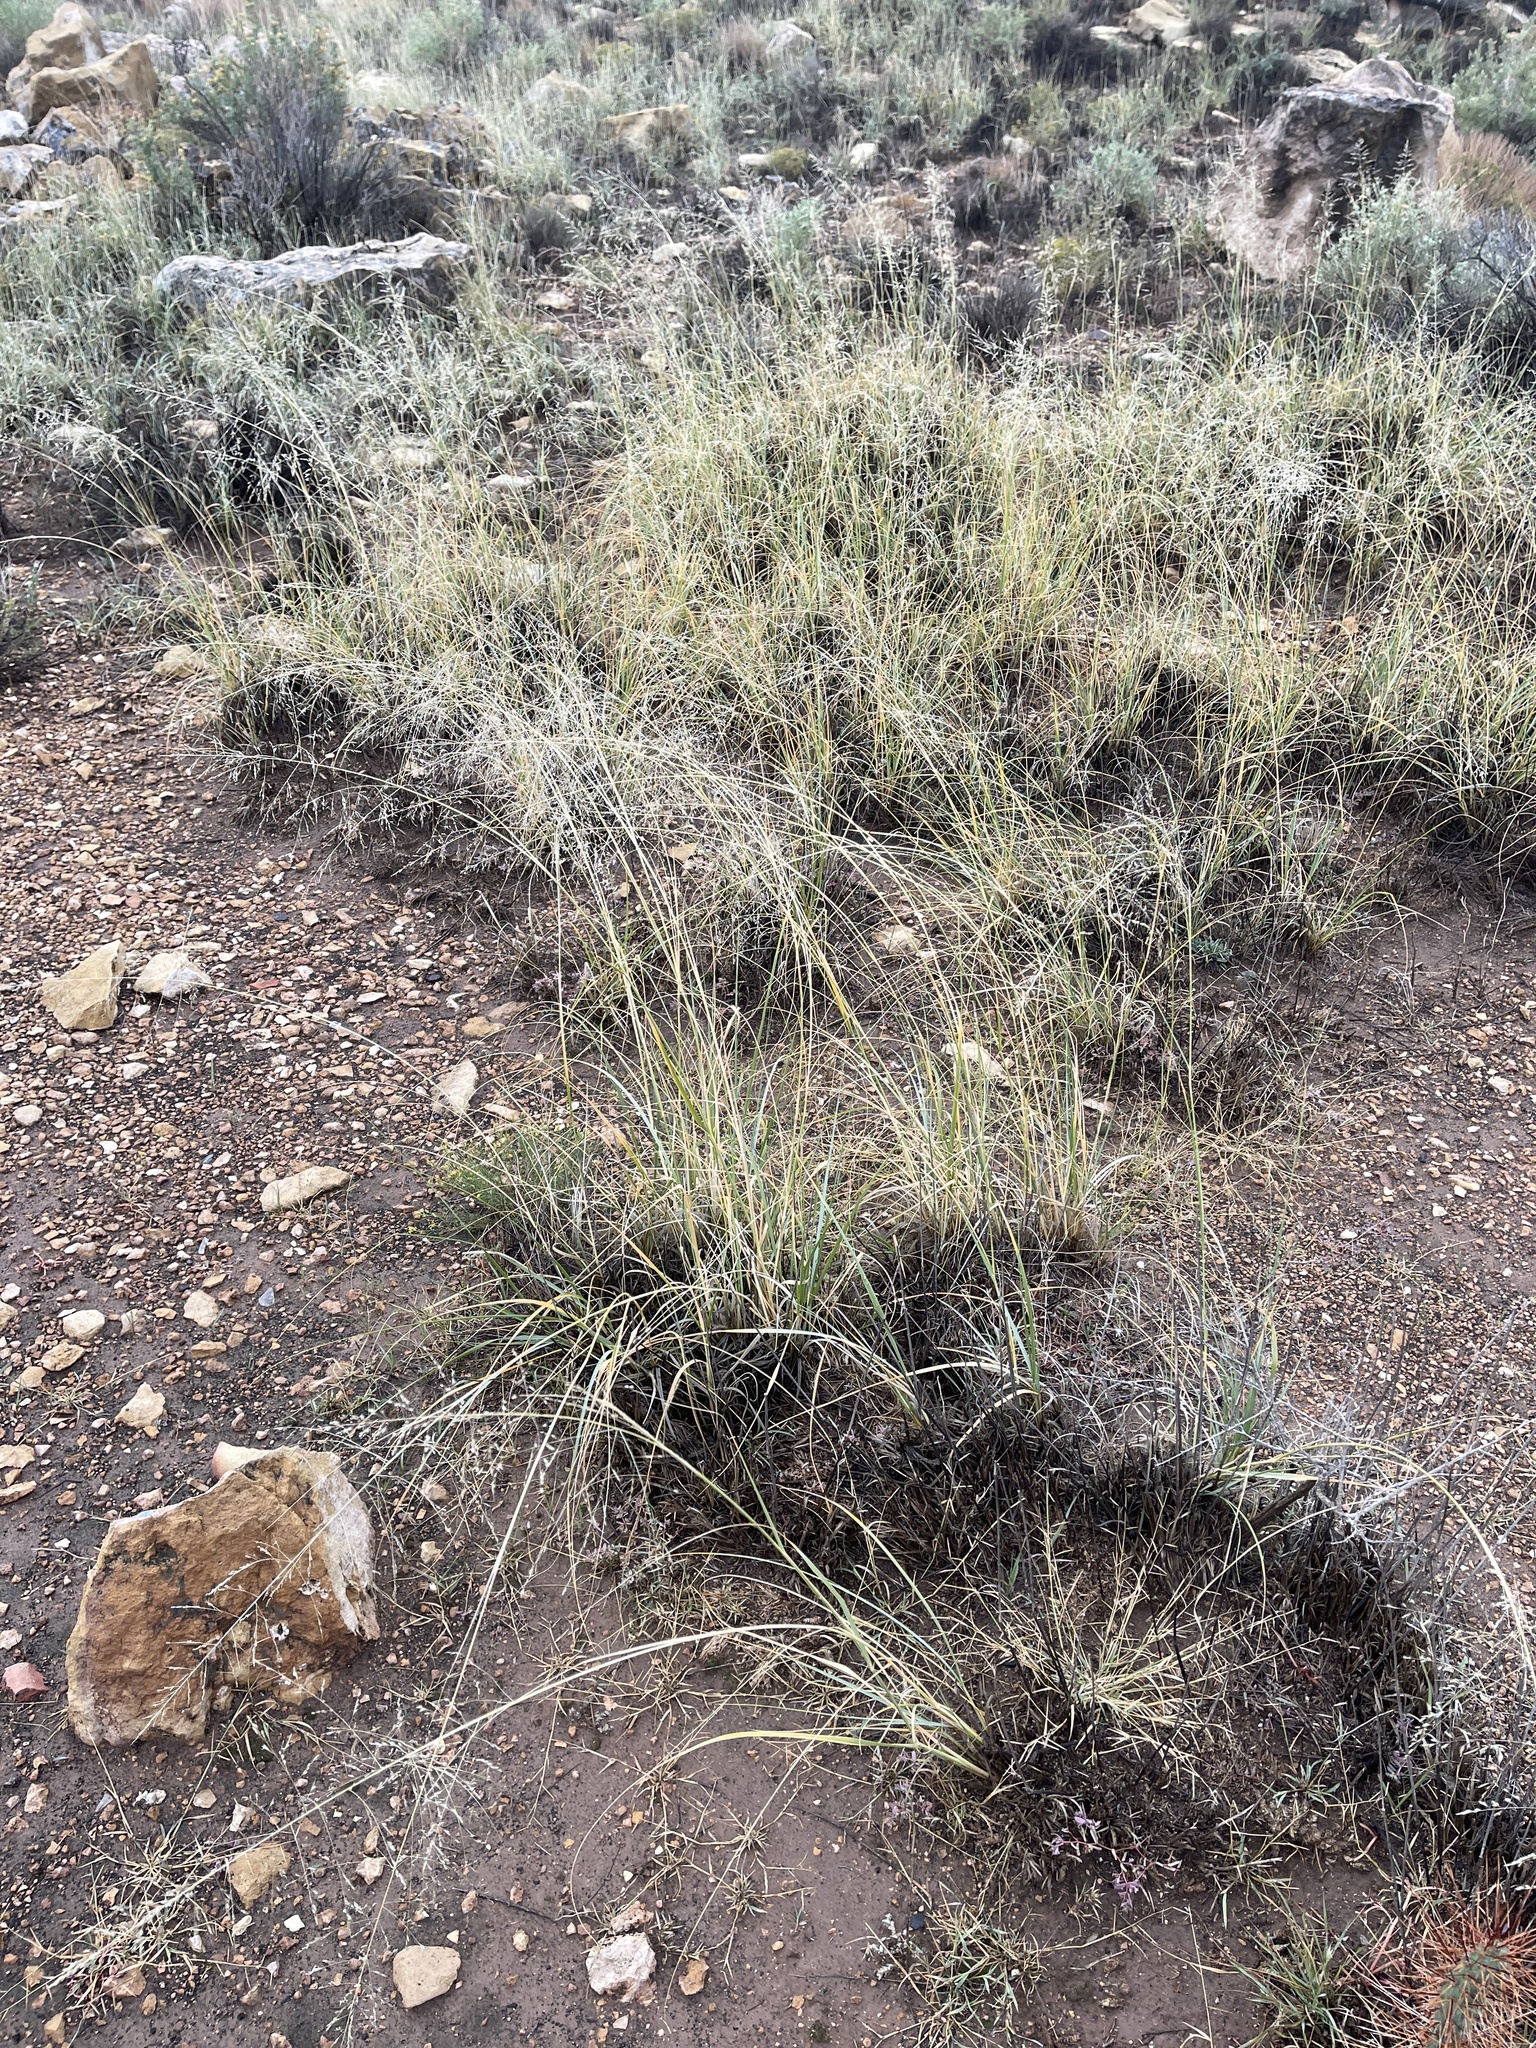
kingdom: Plantae
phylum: Tracheophyta
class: Liliopsida
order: Poales
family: Poaceae
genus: Eragrostis
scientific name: Eragrostis curvula
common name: African love-grass
